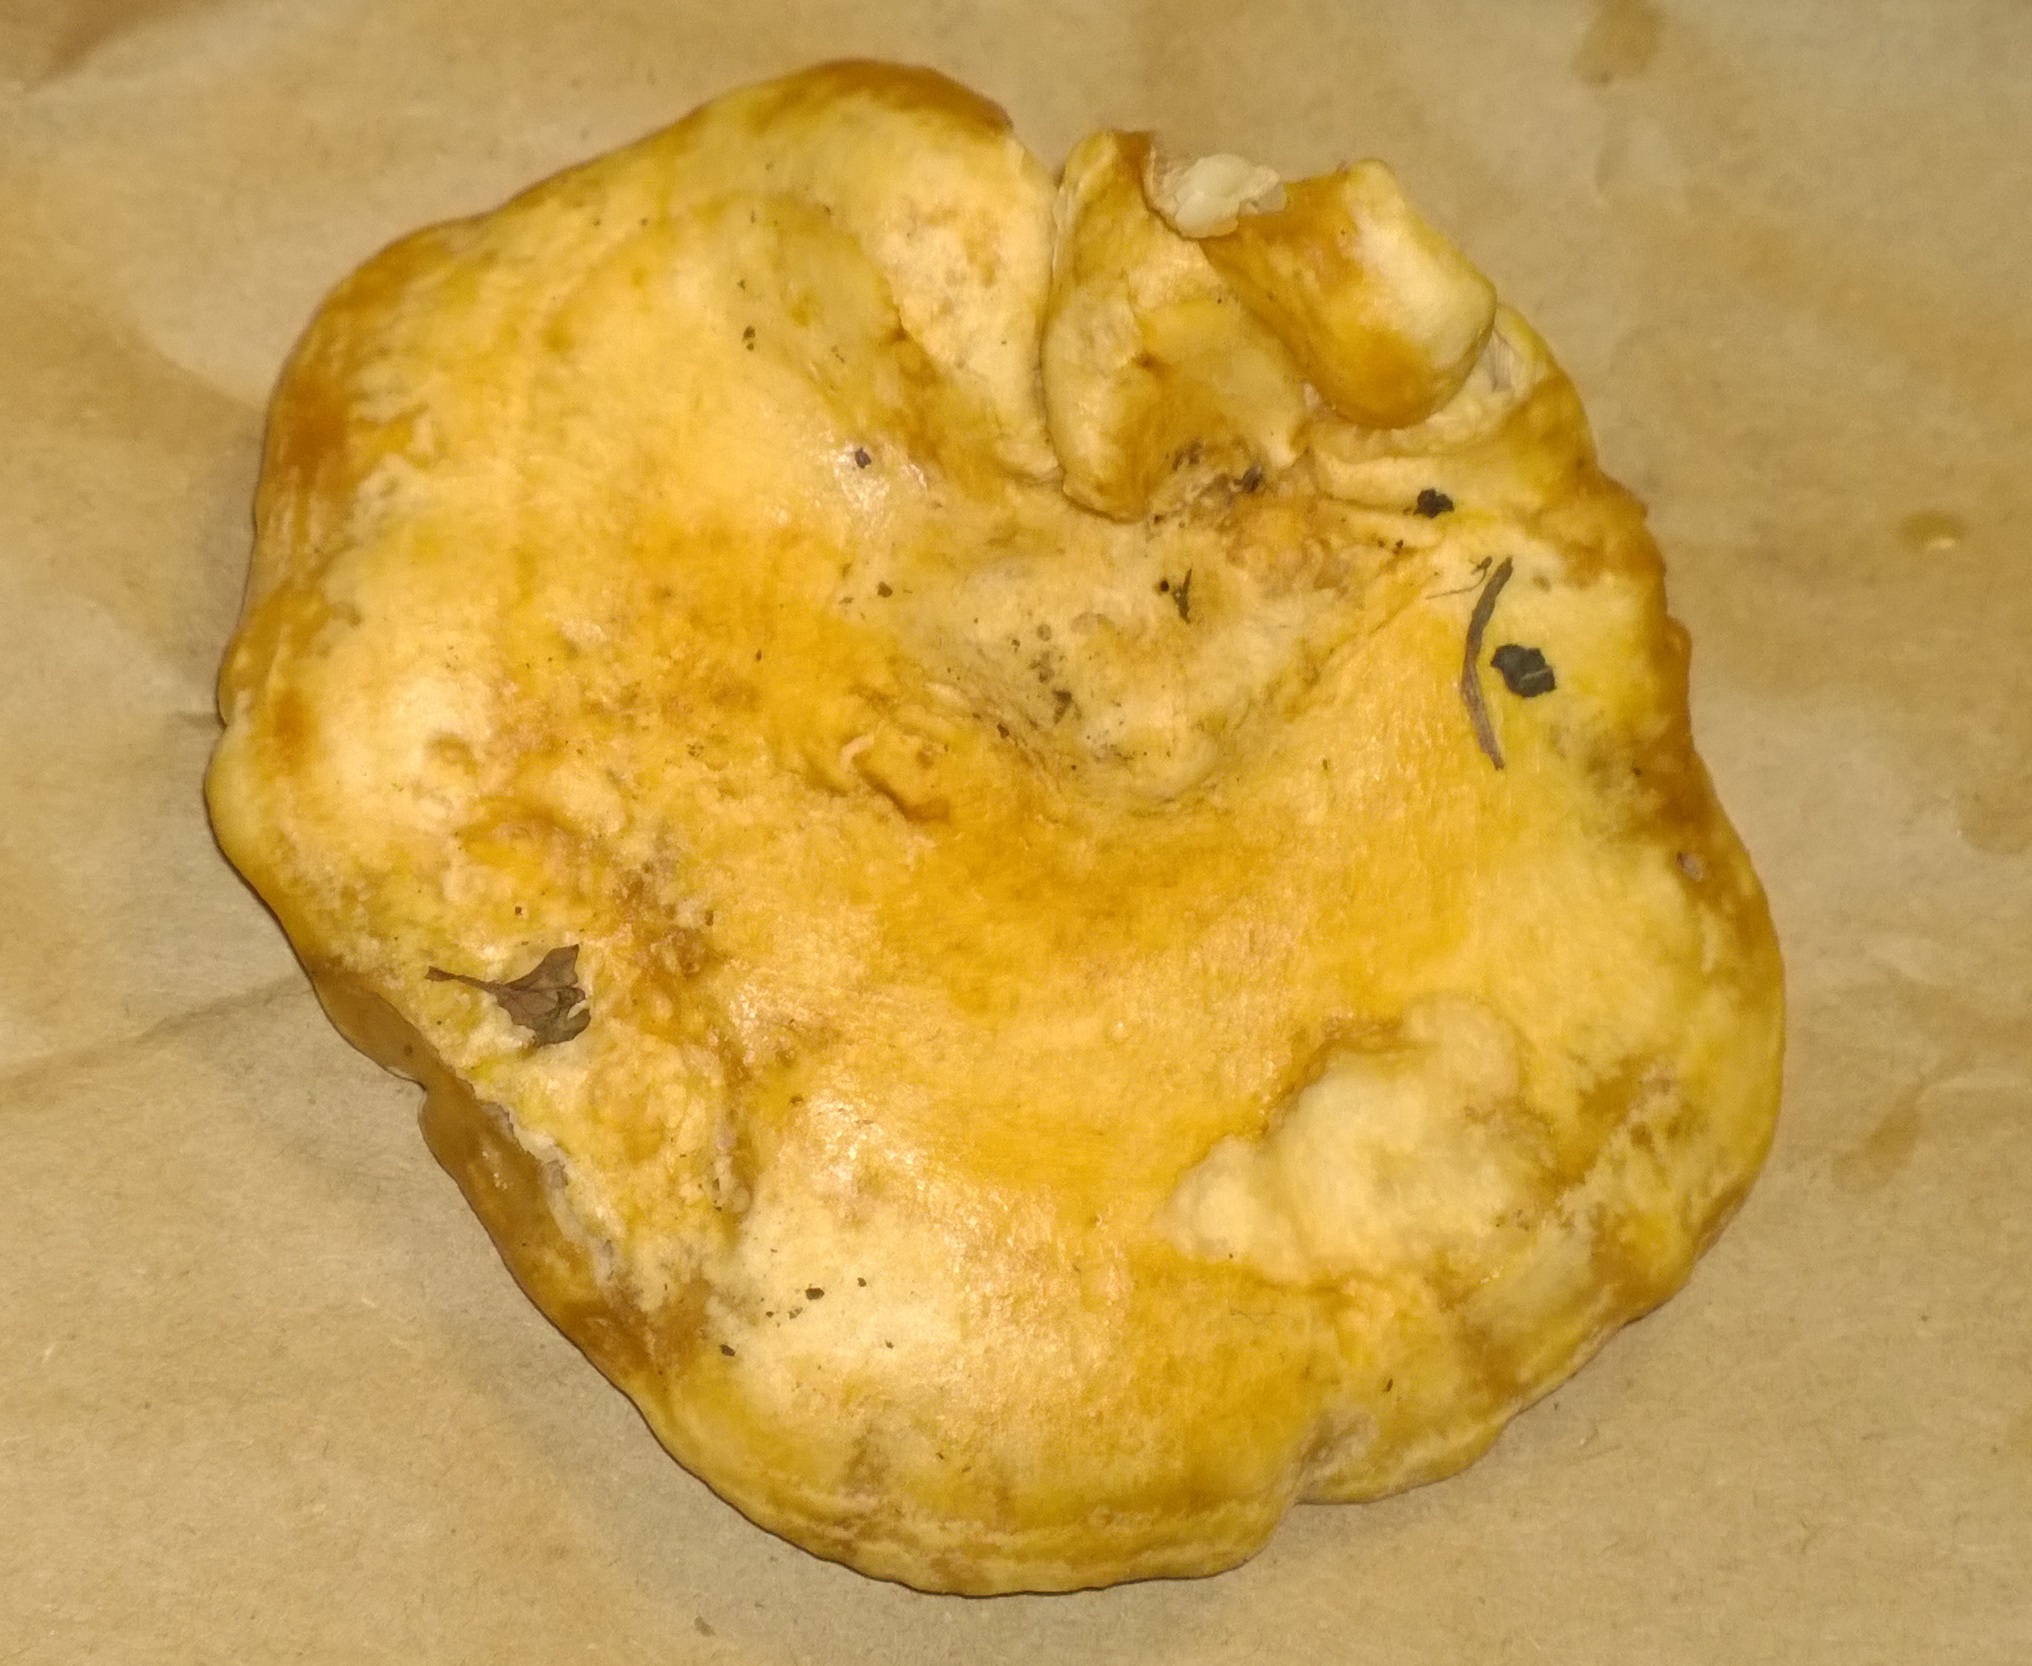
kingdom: Fungi
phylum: Basidiomycota
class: Agaricomycetes
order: Russulales
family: Russulaceae
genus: Lactarius
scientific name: Lactarius yazooensis
